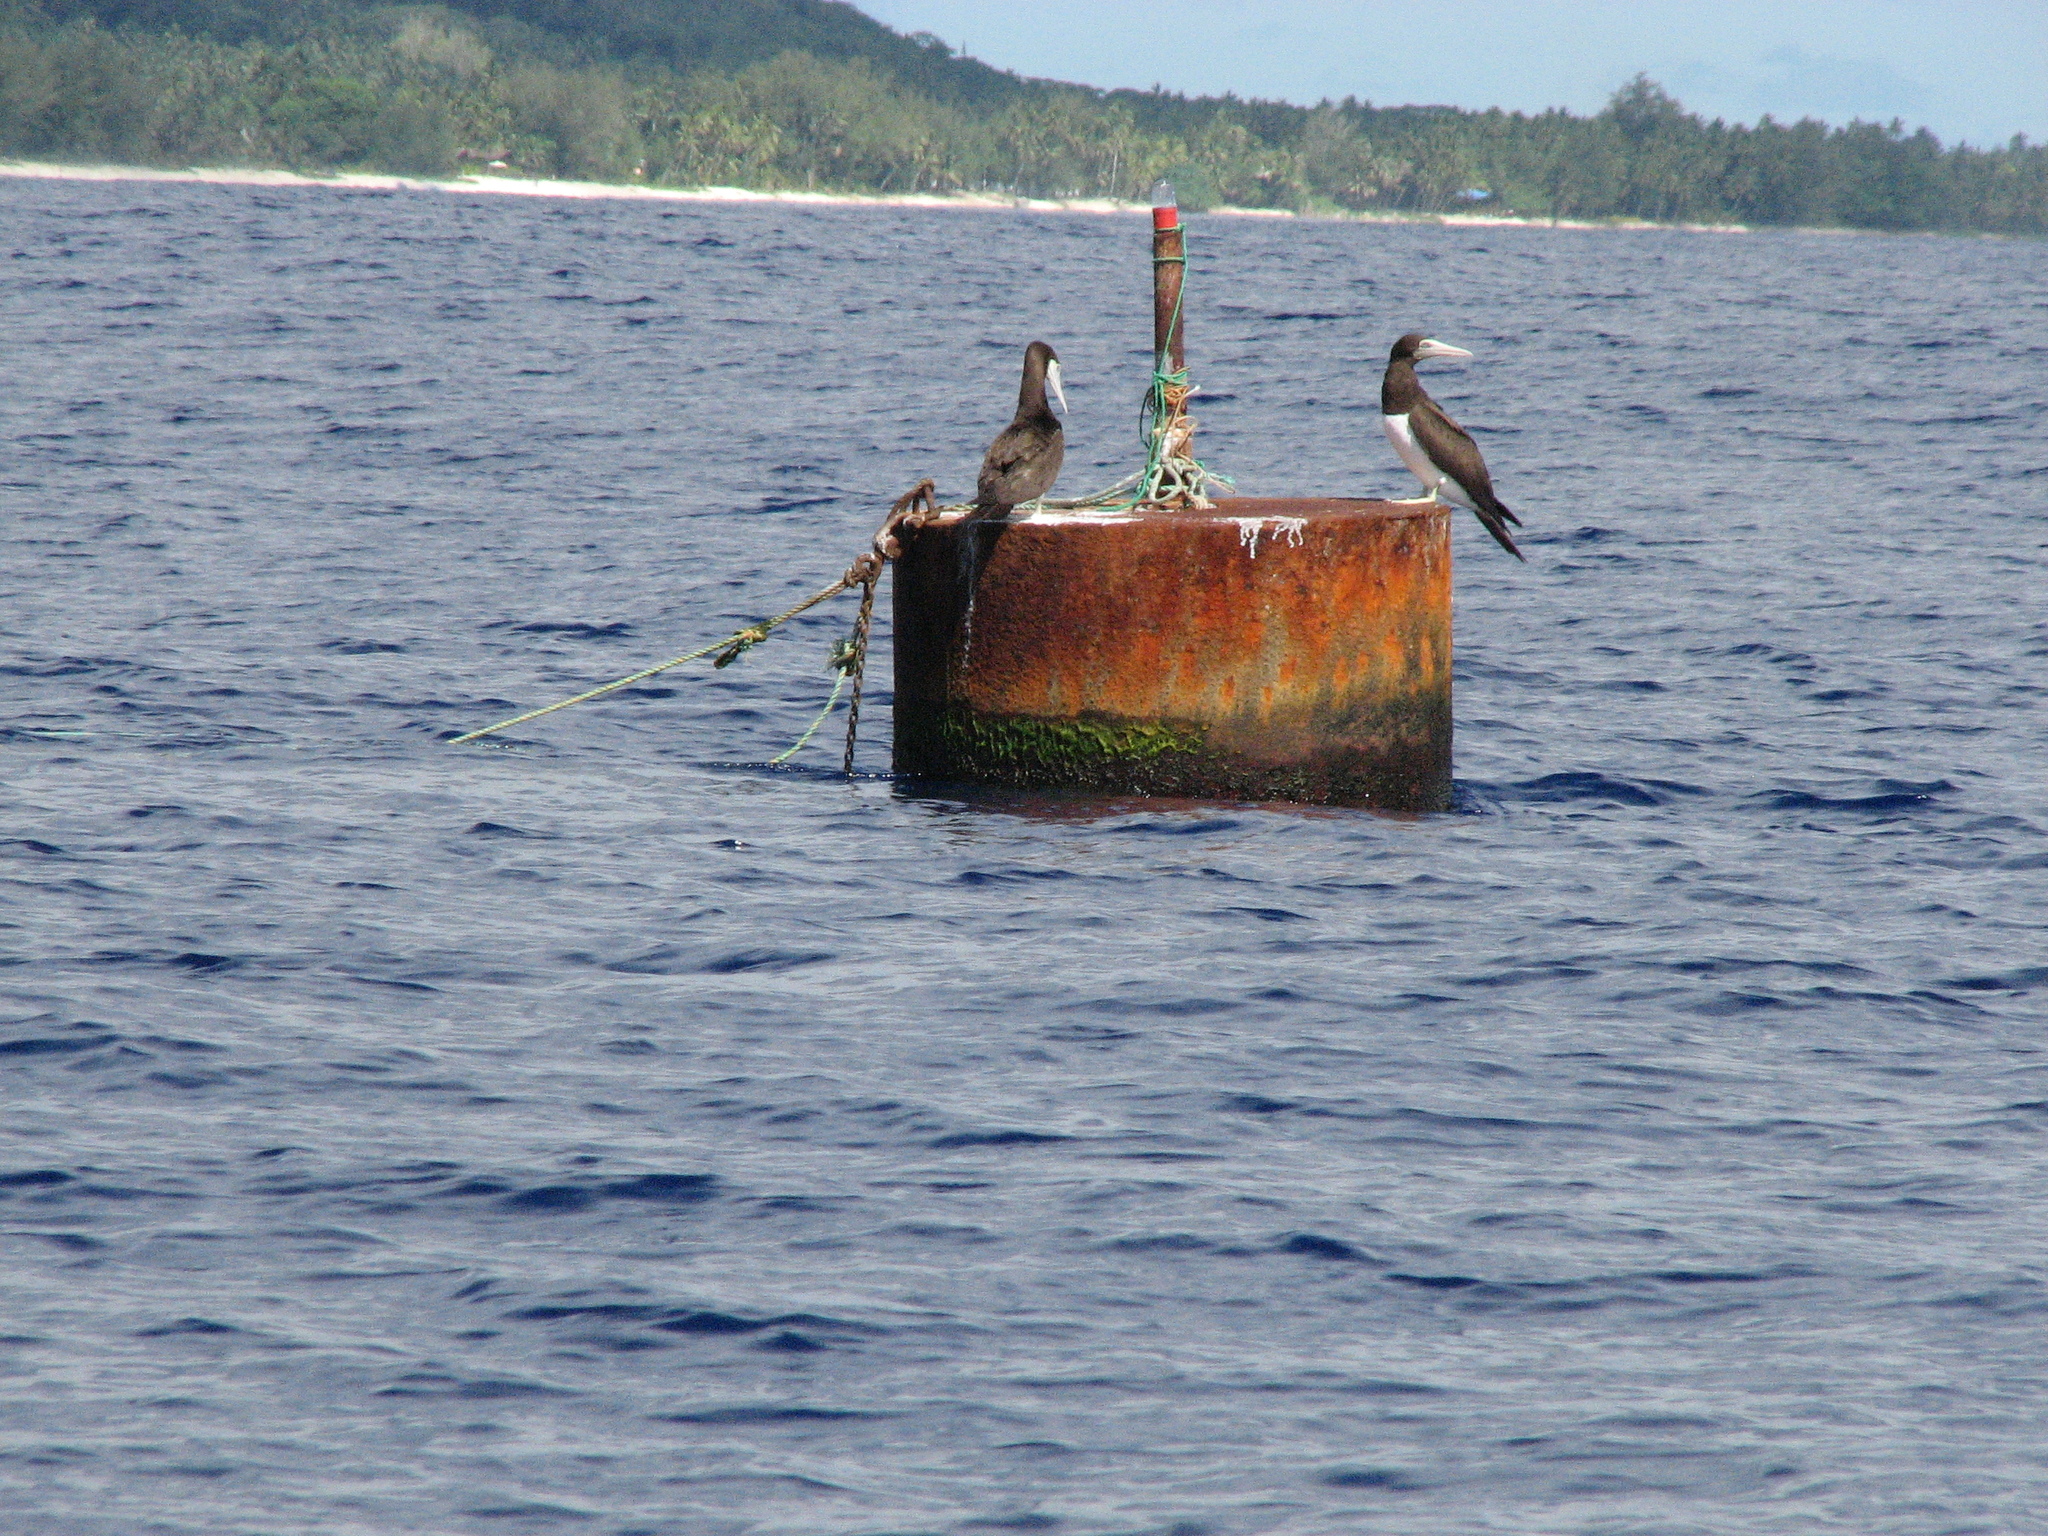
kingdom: Animalia
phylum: Chordata
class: Aves
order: Suliformes
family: Sulidae
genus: Sula
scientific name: Sula leucogaster
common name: Brown booby
